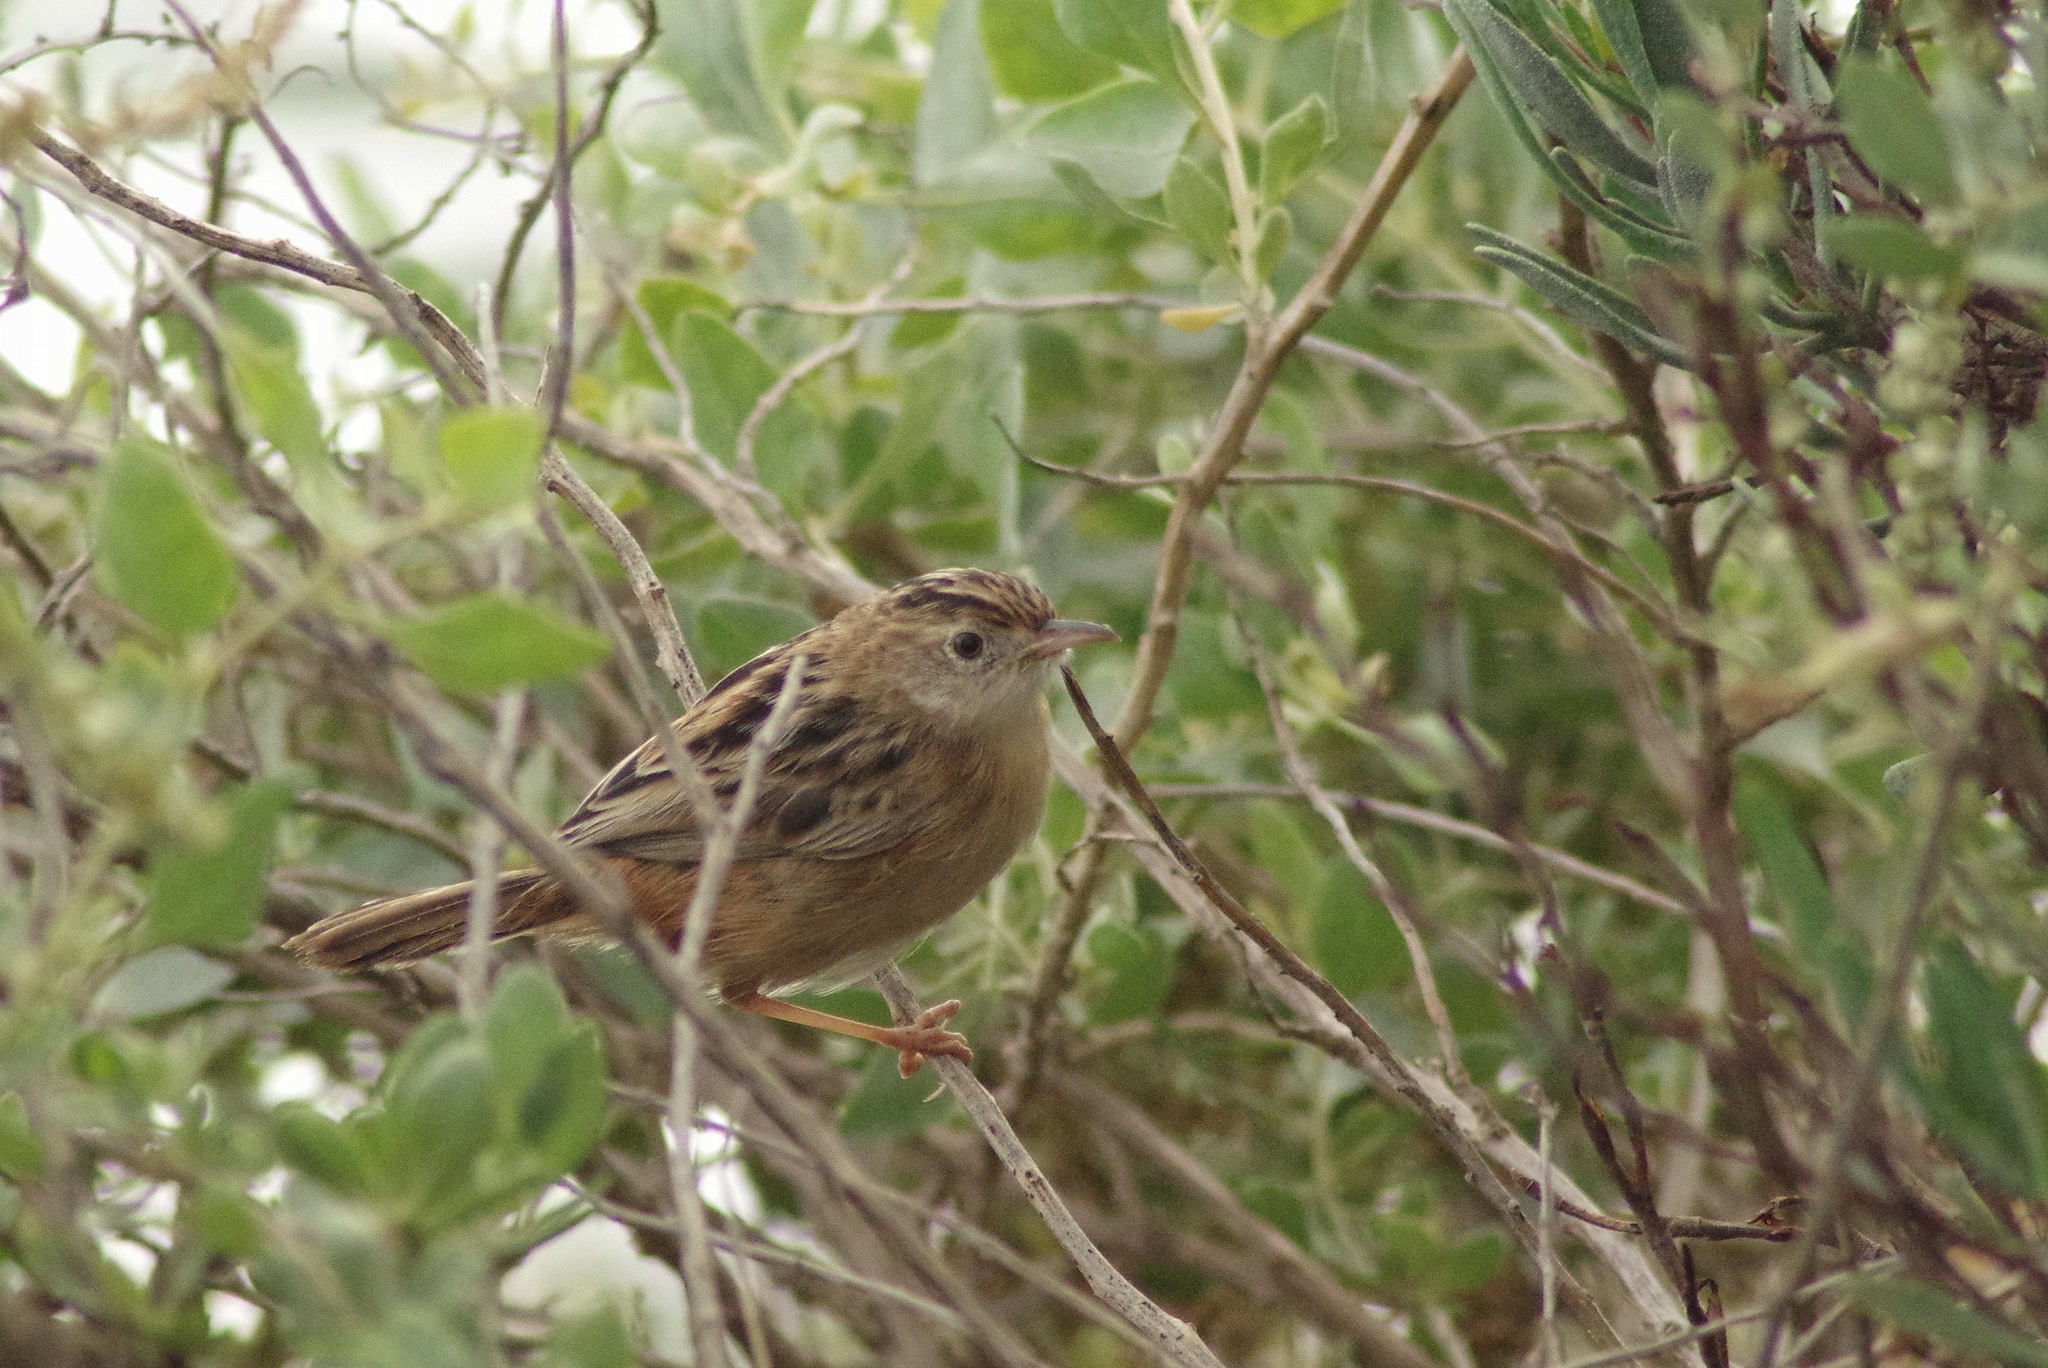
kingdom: Animalia
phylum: Chordata
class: Aves
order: Passeriformes
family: Cisticolidae
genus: Cisticola
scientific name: Cisticola juncidis
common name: Zitting cisticola
